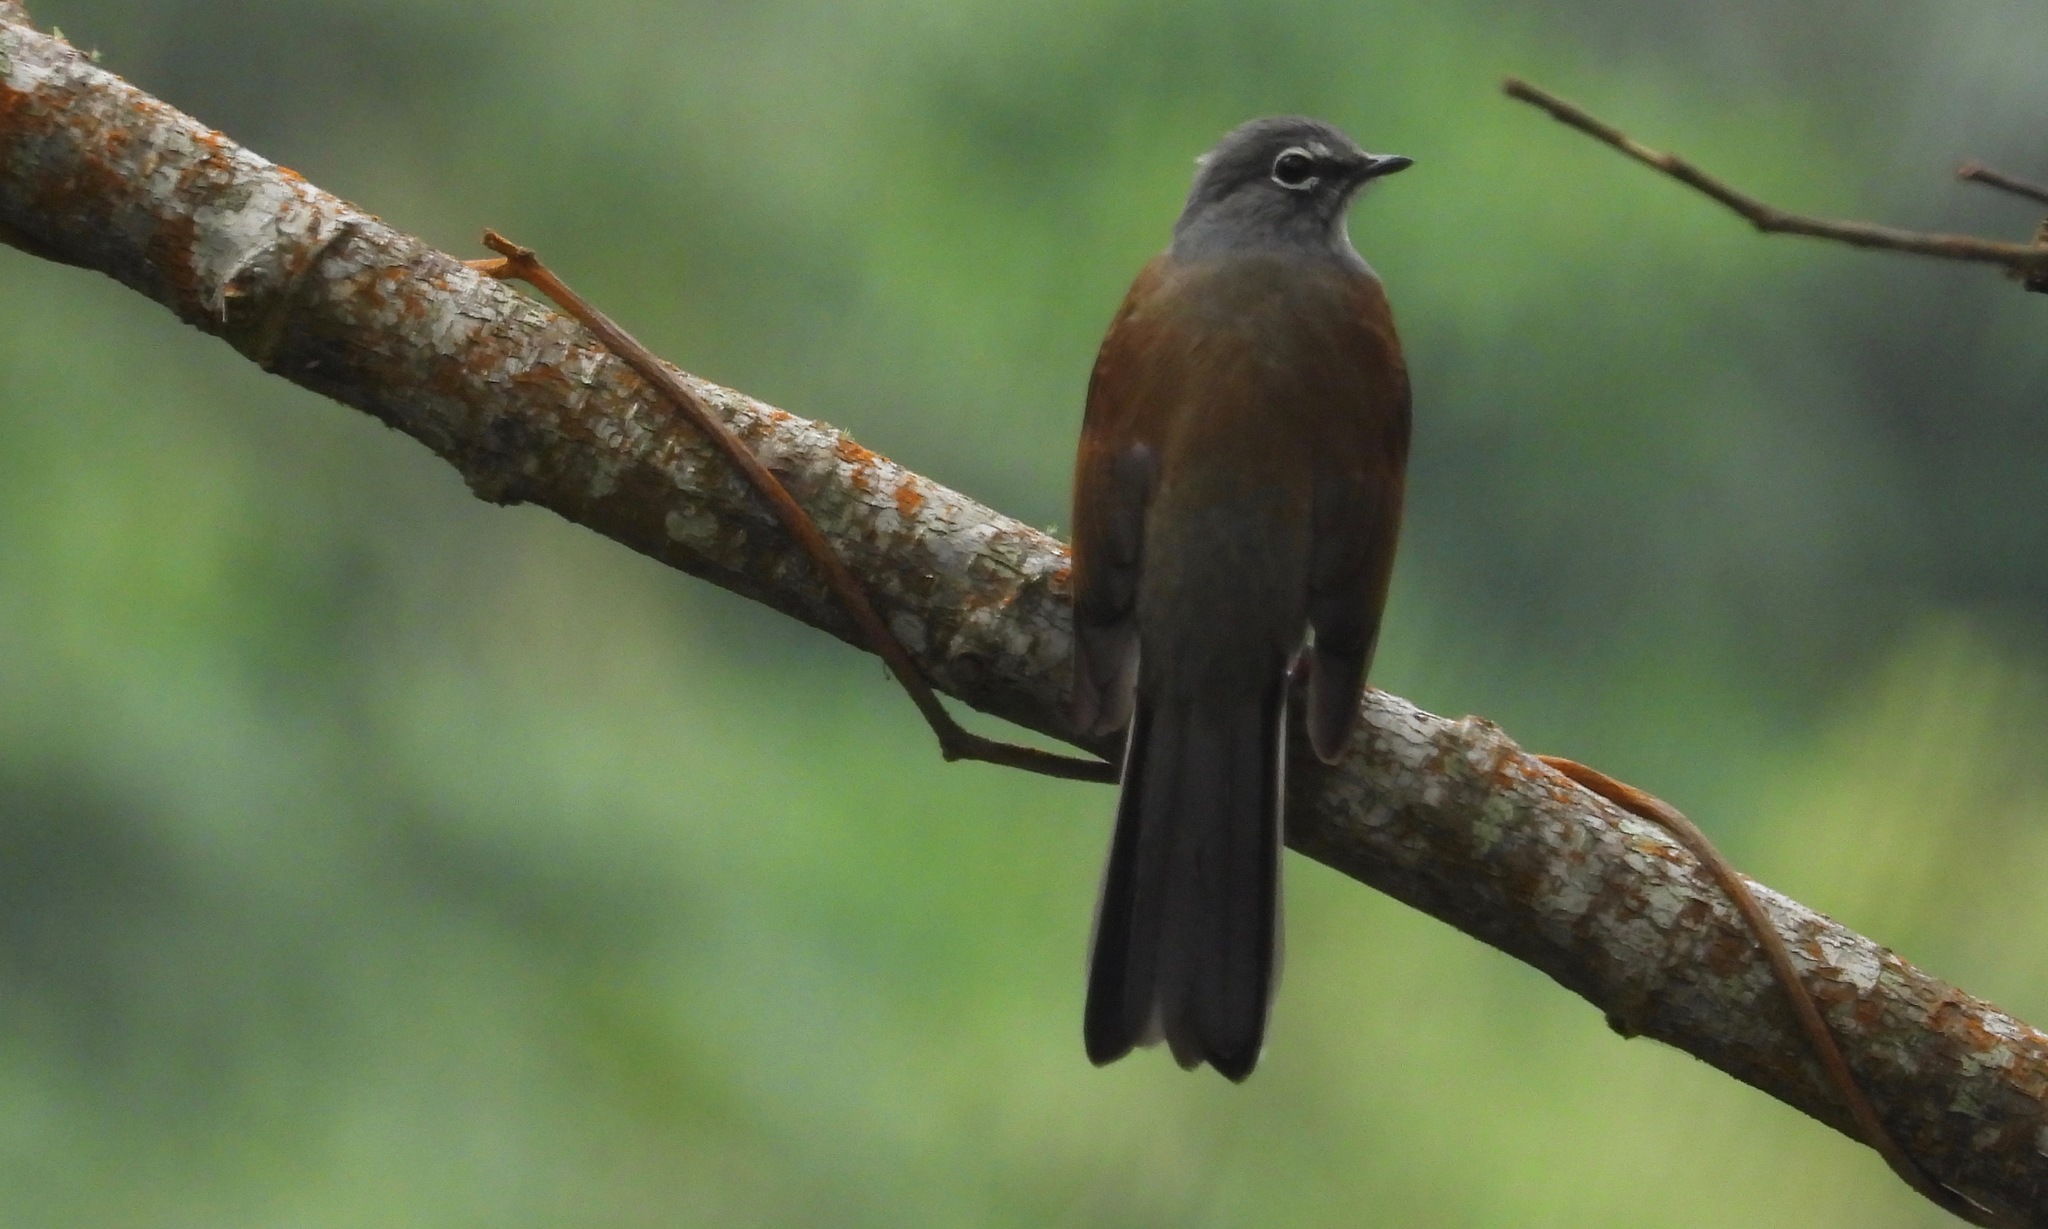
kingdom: Animalia
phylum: Chordata
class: Aves
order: Passeriformes
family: Turdidae
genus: Myadestes
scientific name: Myadestes occidentalis
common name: Brown-backed solitaire
